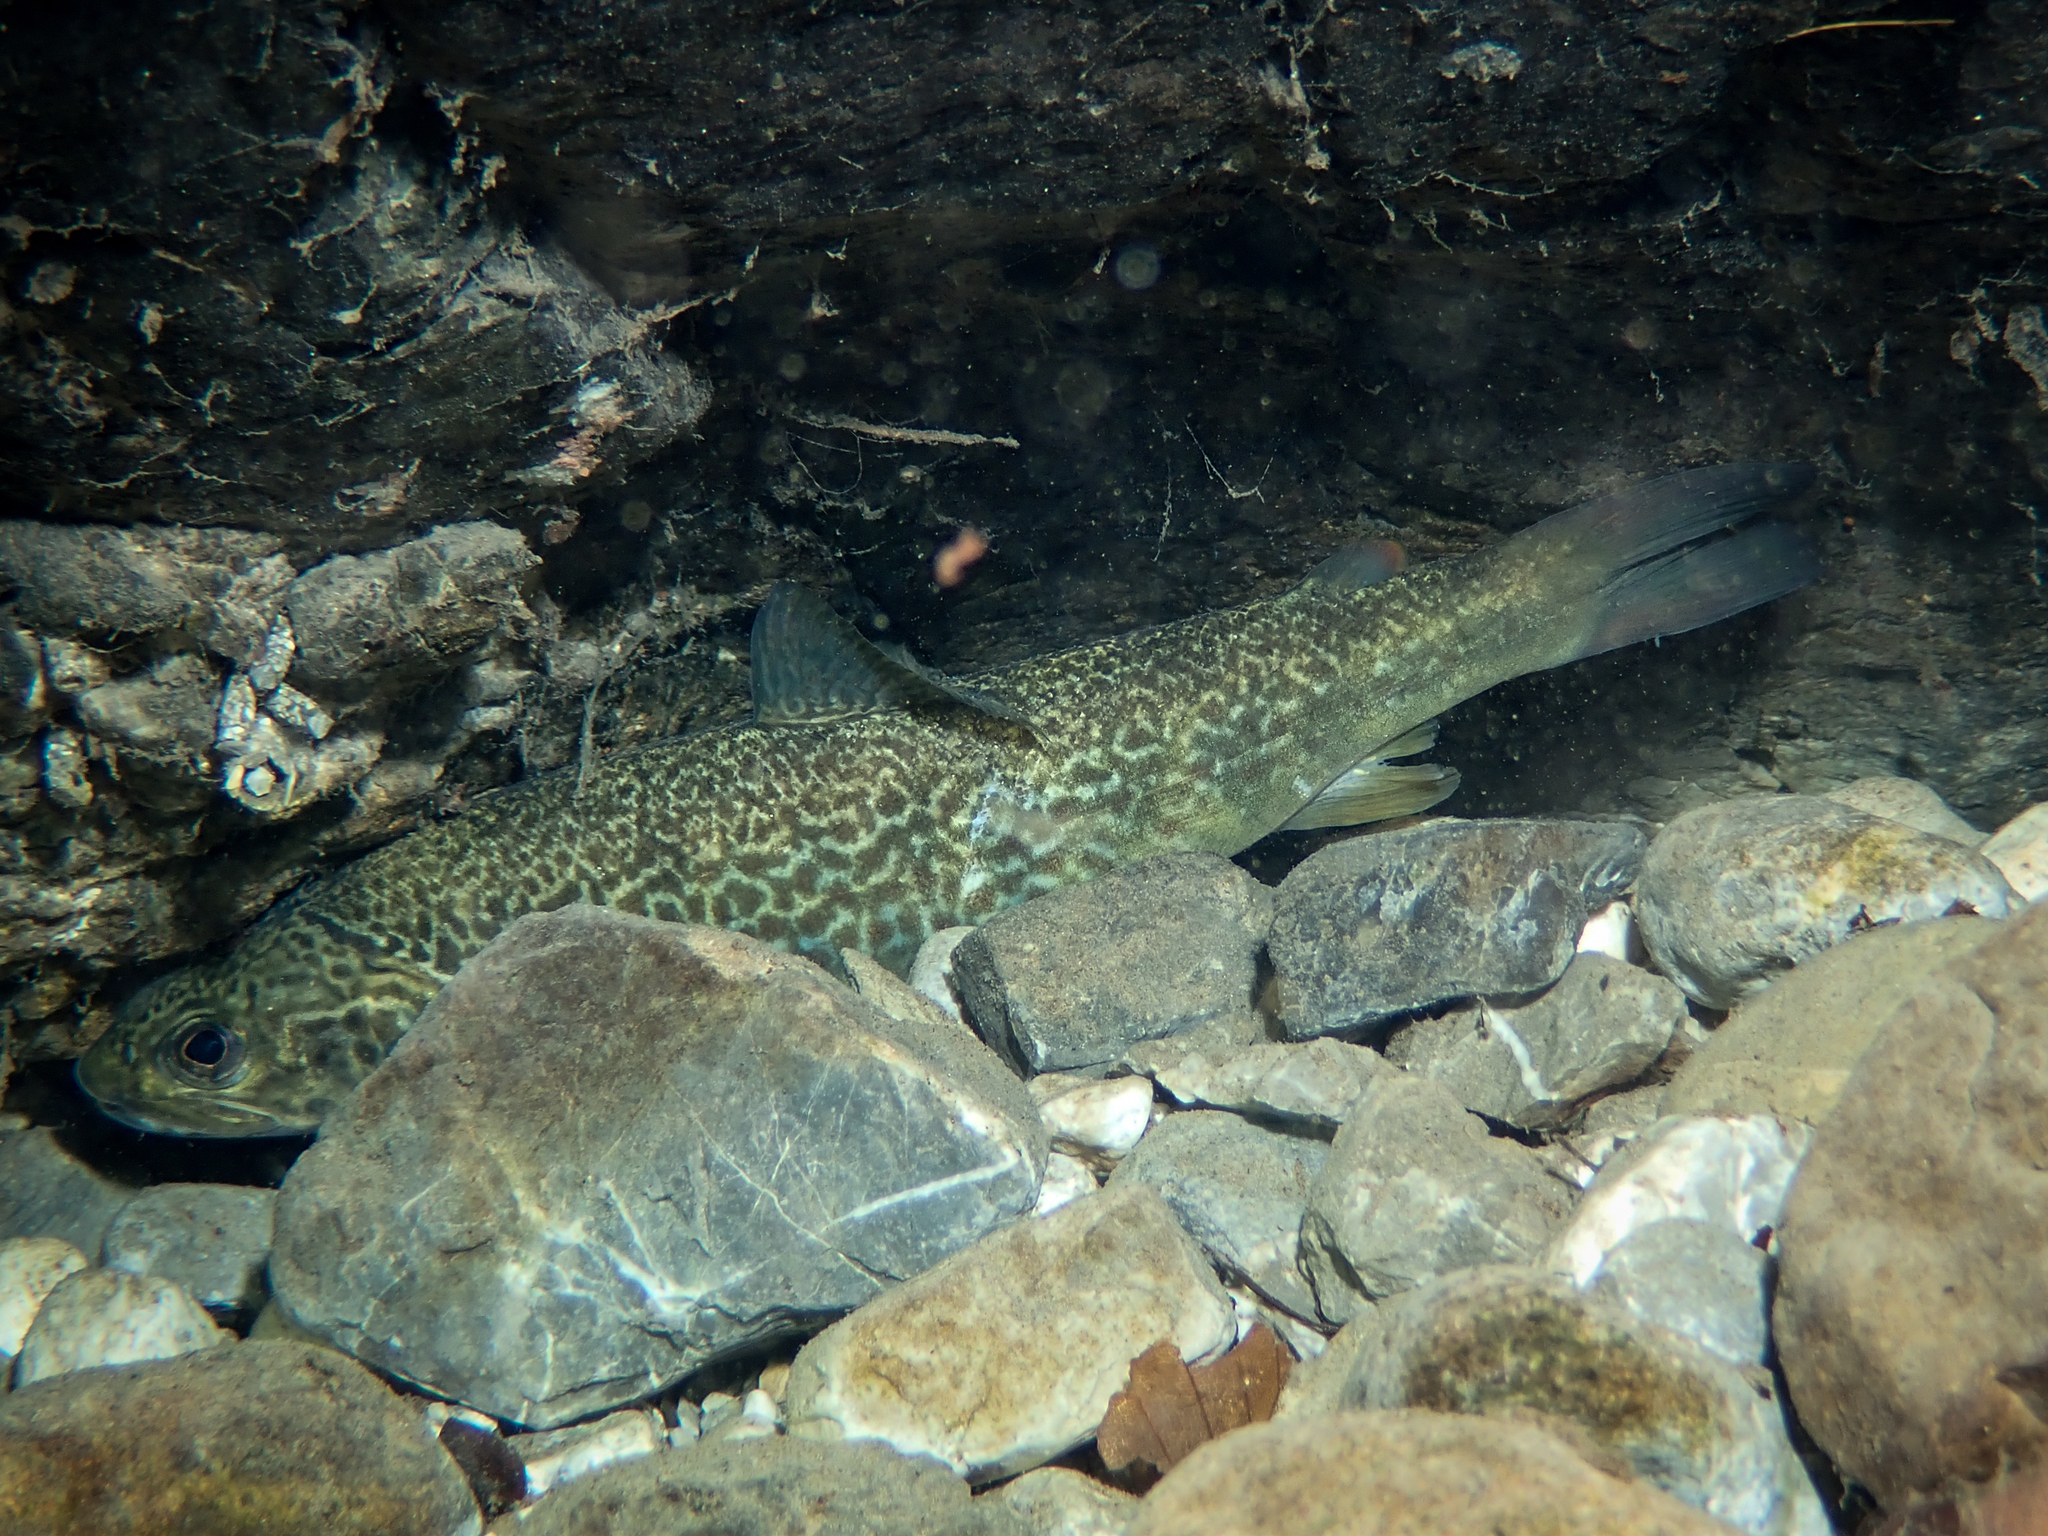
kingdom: Animalia
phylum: Chordata
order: Salmoniformes
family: Salmonidae
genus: Salmo
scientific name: Salmo marmoratus
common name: Marble trout
